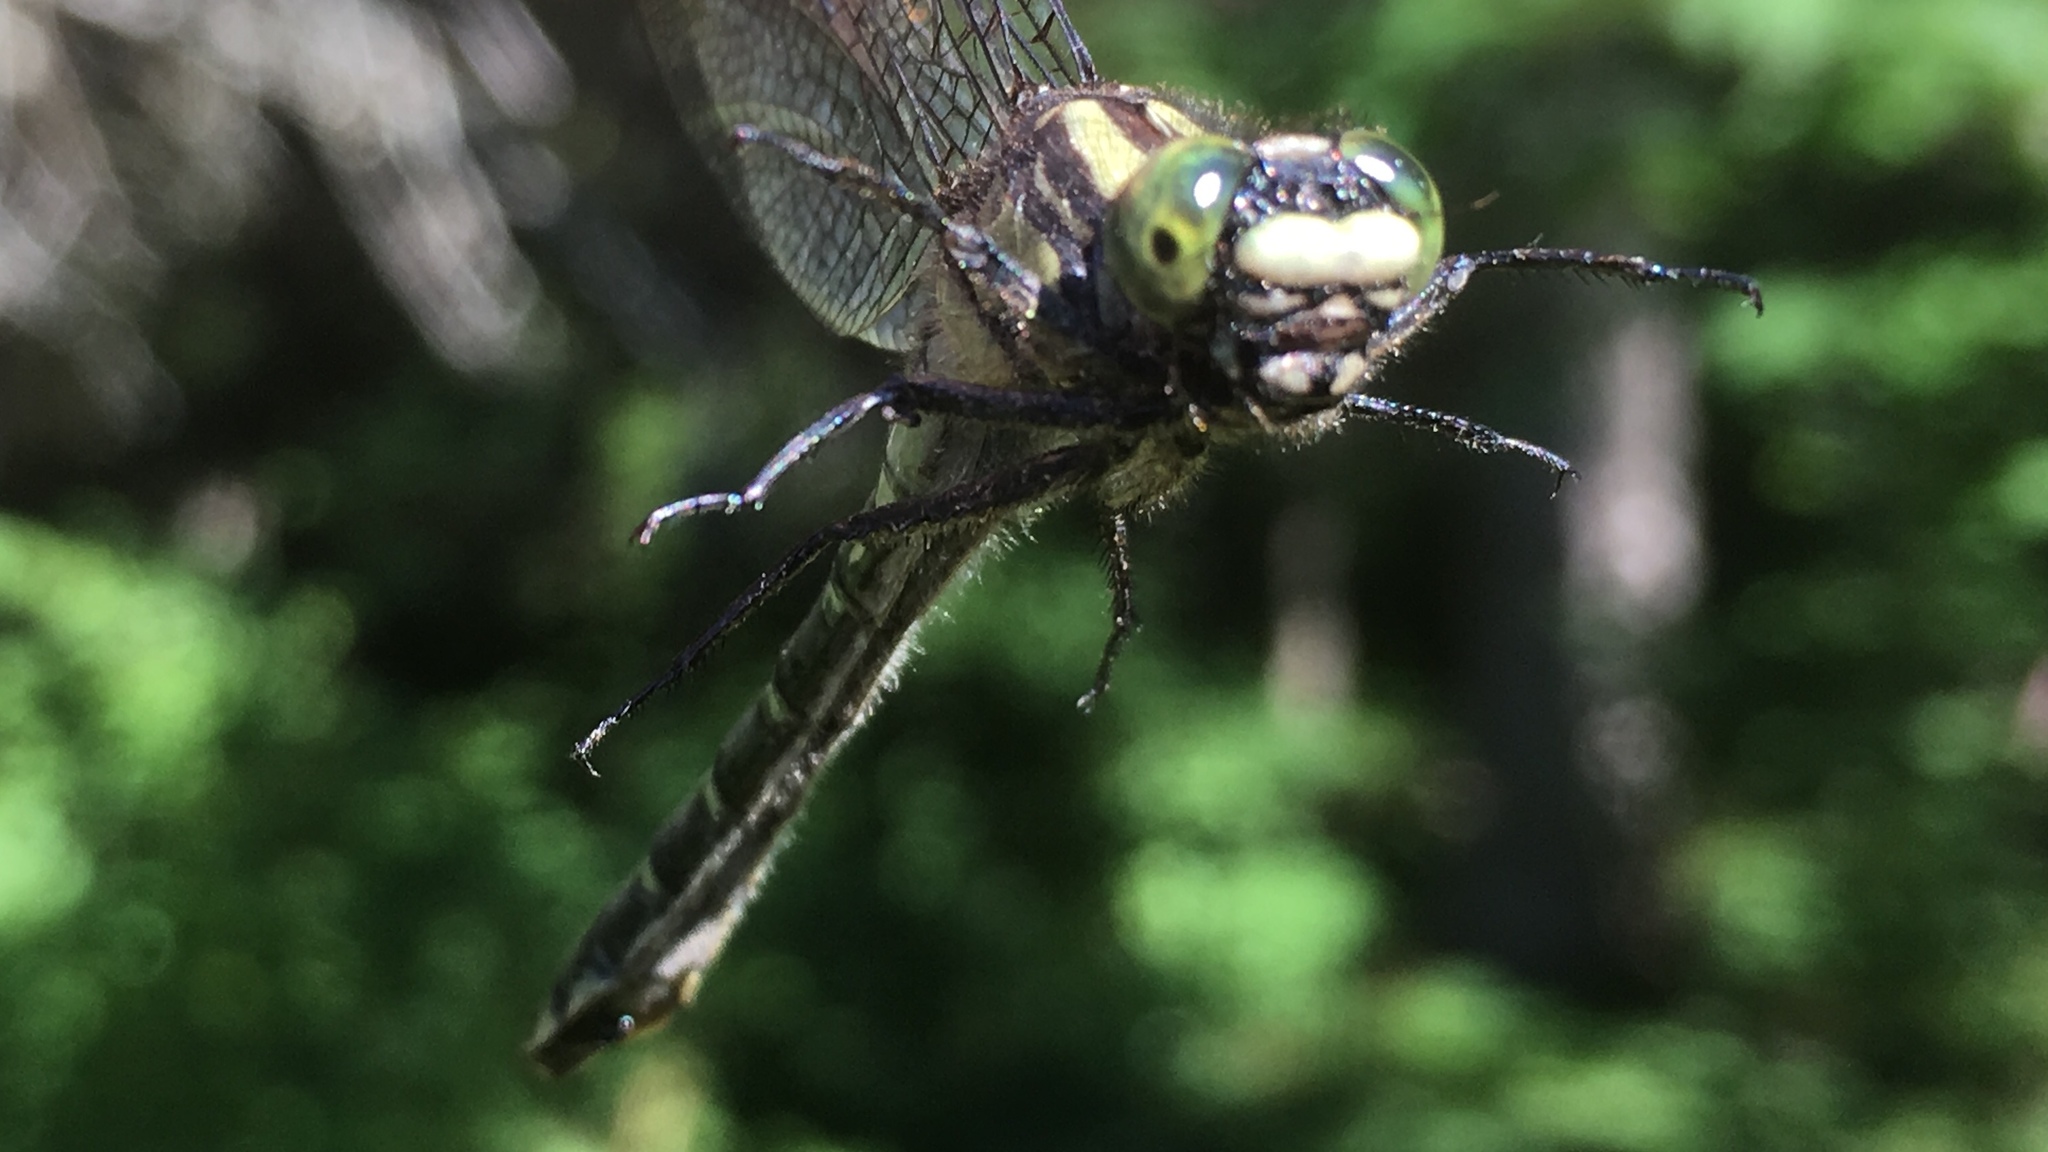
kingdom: Animalia
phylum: Arthropoda
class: Insecta
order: Odonata
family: Gomphidae
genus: Hylogomphus
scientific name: Hylogomphus adelphus
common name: Mustached clubtail
